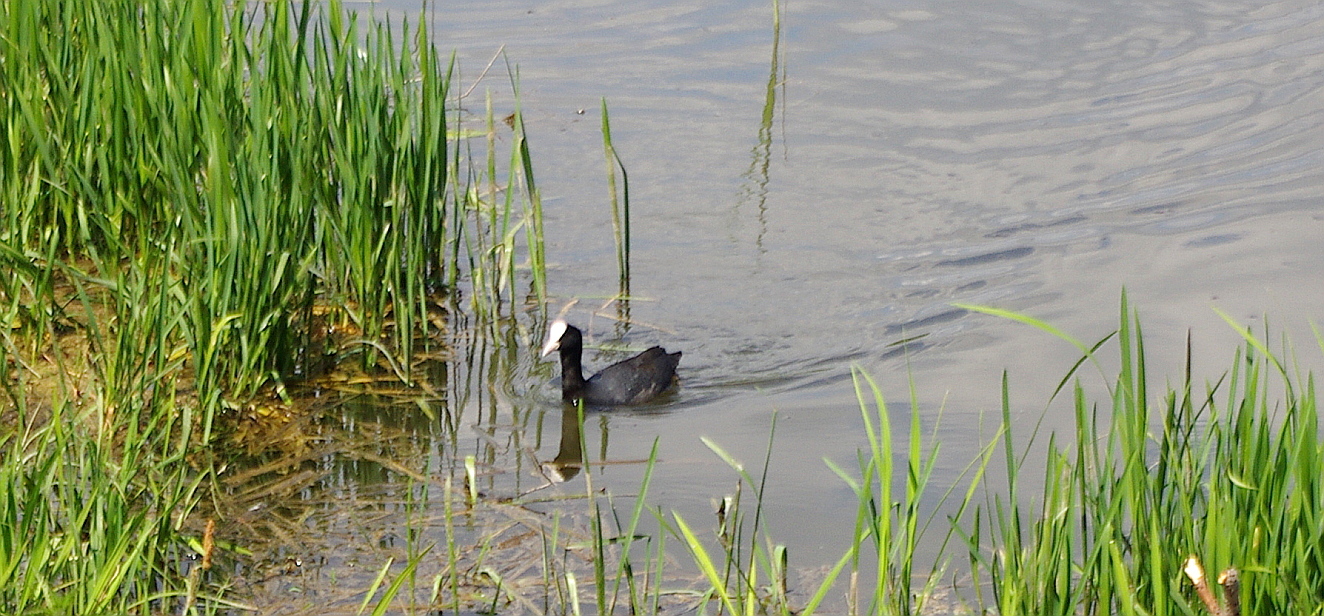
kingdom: Animalia
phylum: Chordata
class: Aves
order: Gruiformes
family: Rallidae
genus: Fulica
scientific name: Fulica atra
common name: Eurasian coot
